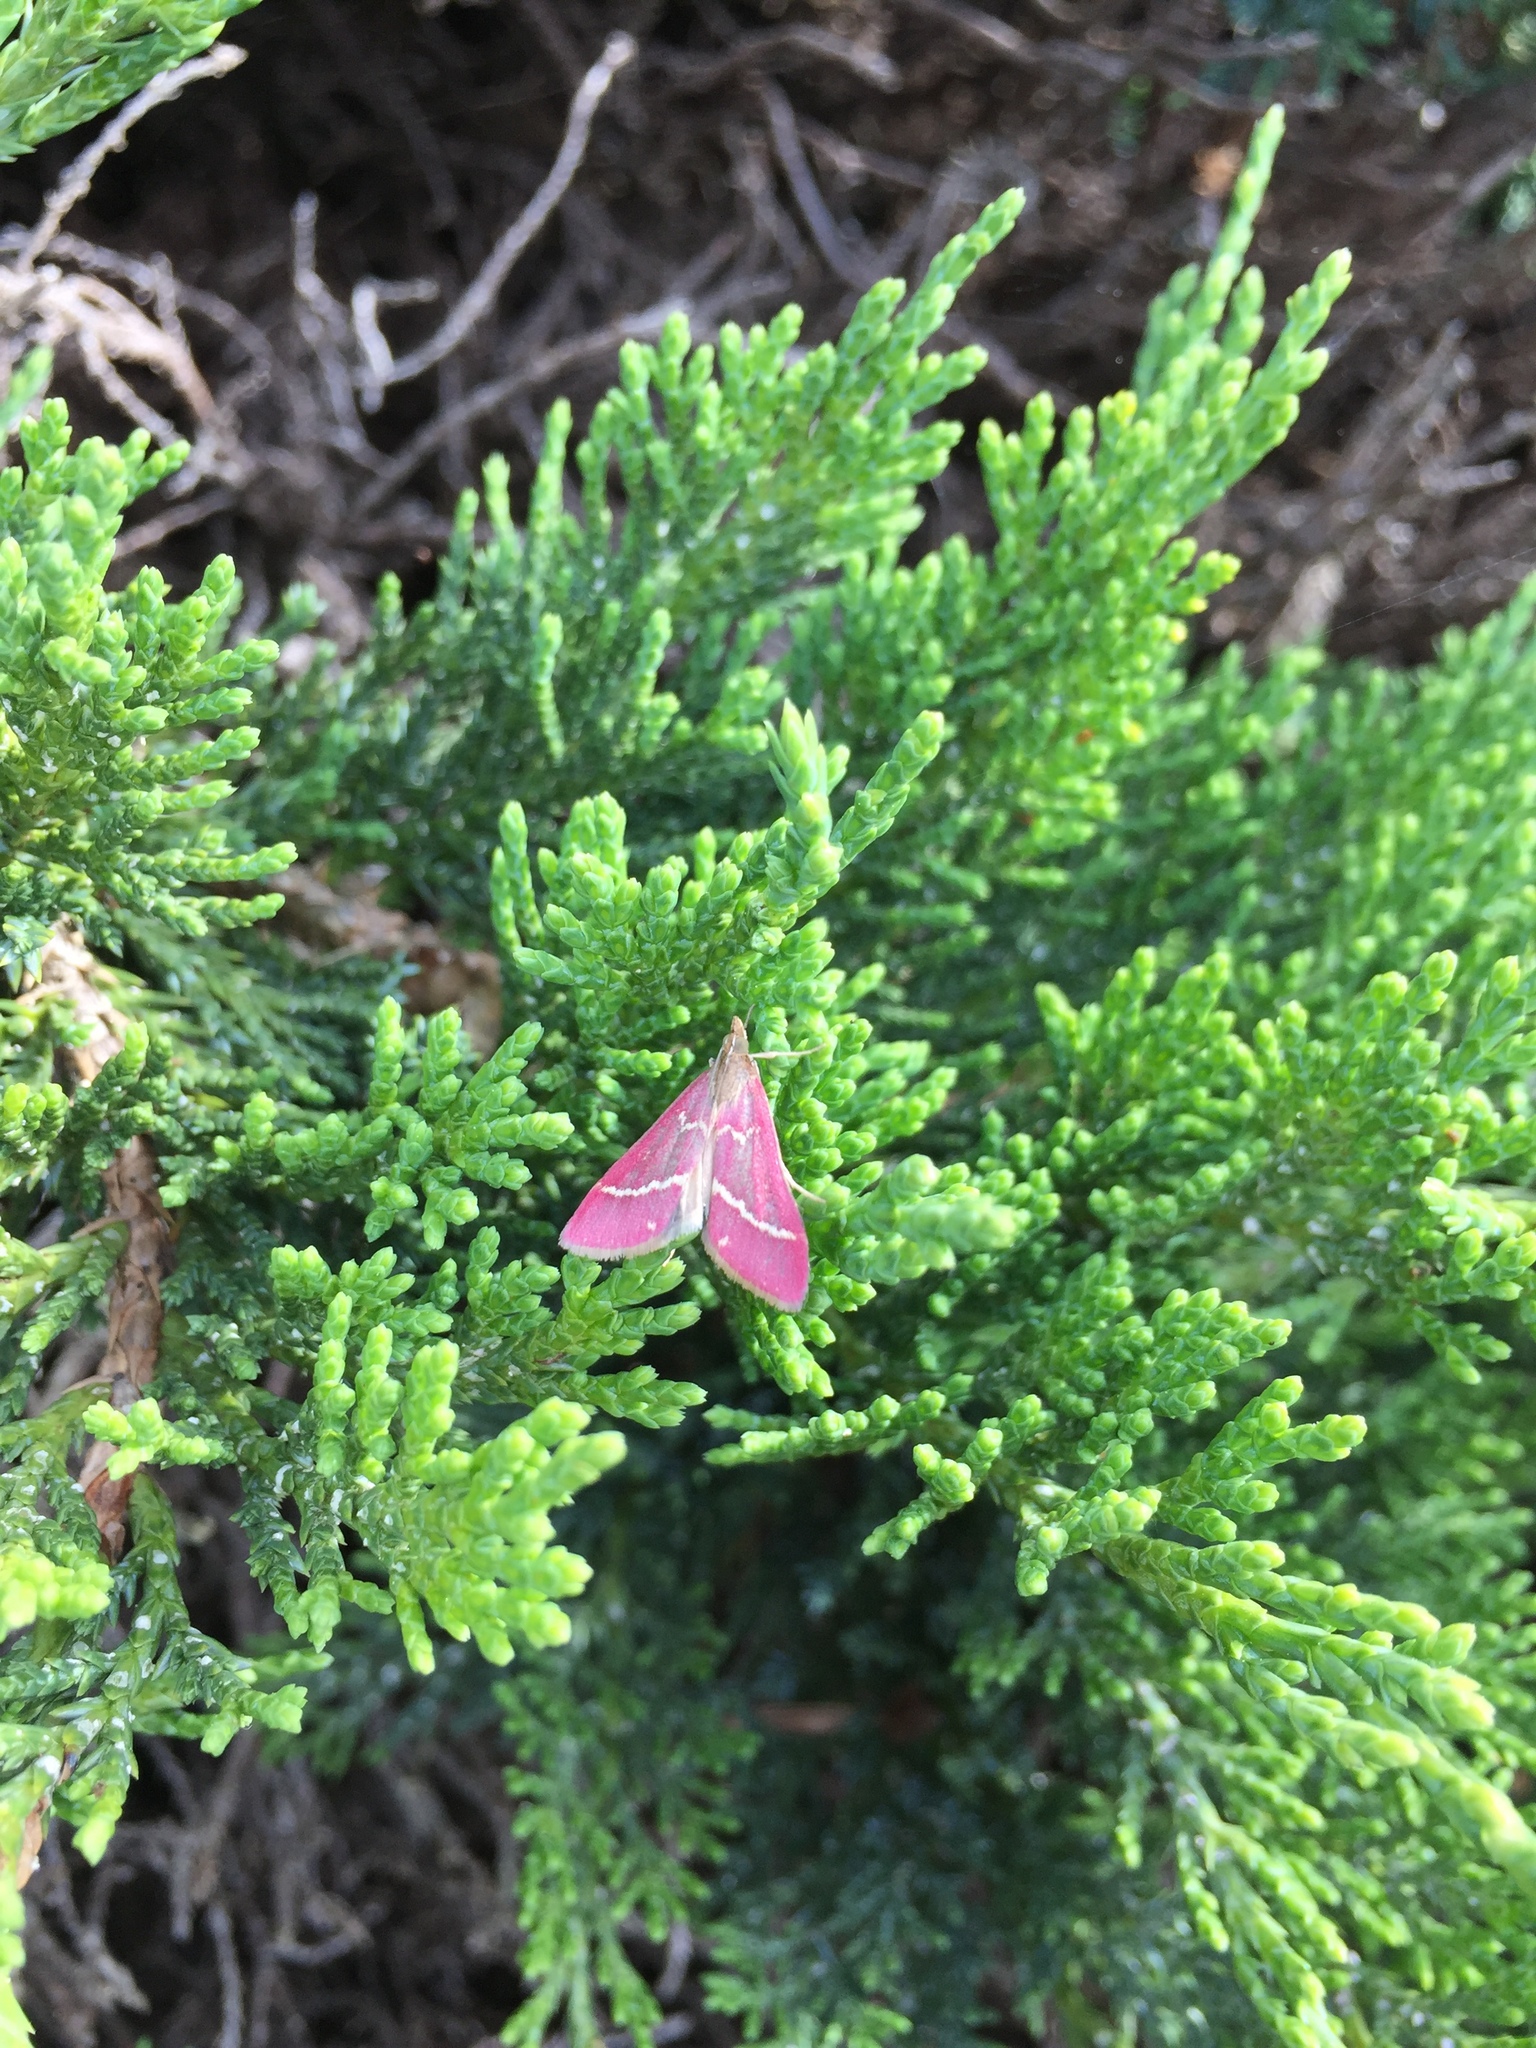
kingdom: Animalia
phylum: Arthropoda
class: Insecta
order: Lepidoptera
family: Crambidae
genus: Pyrausta
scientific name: Pyrausta volupialis
